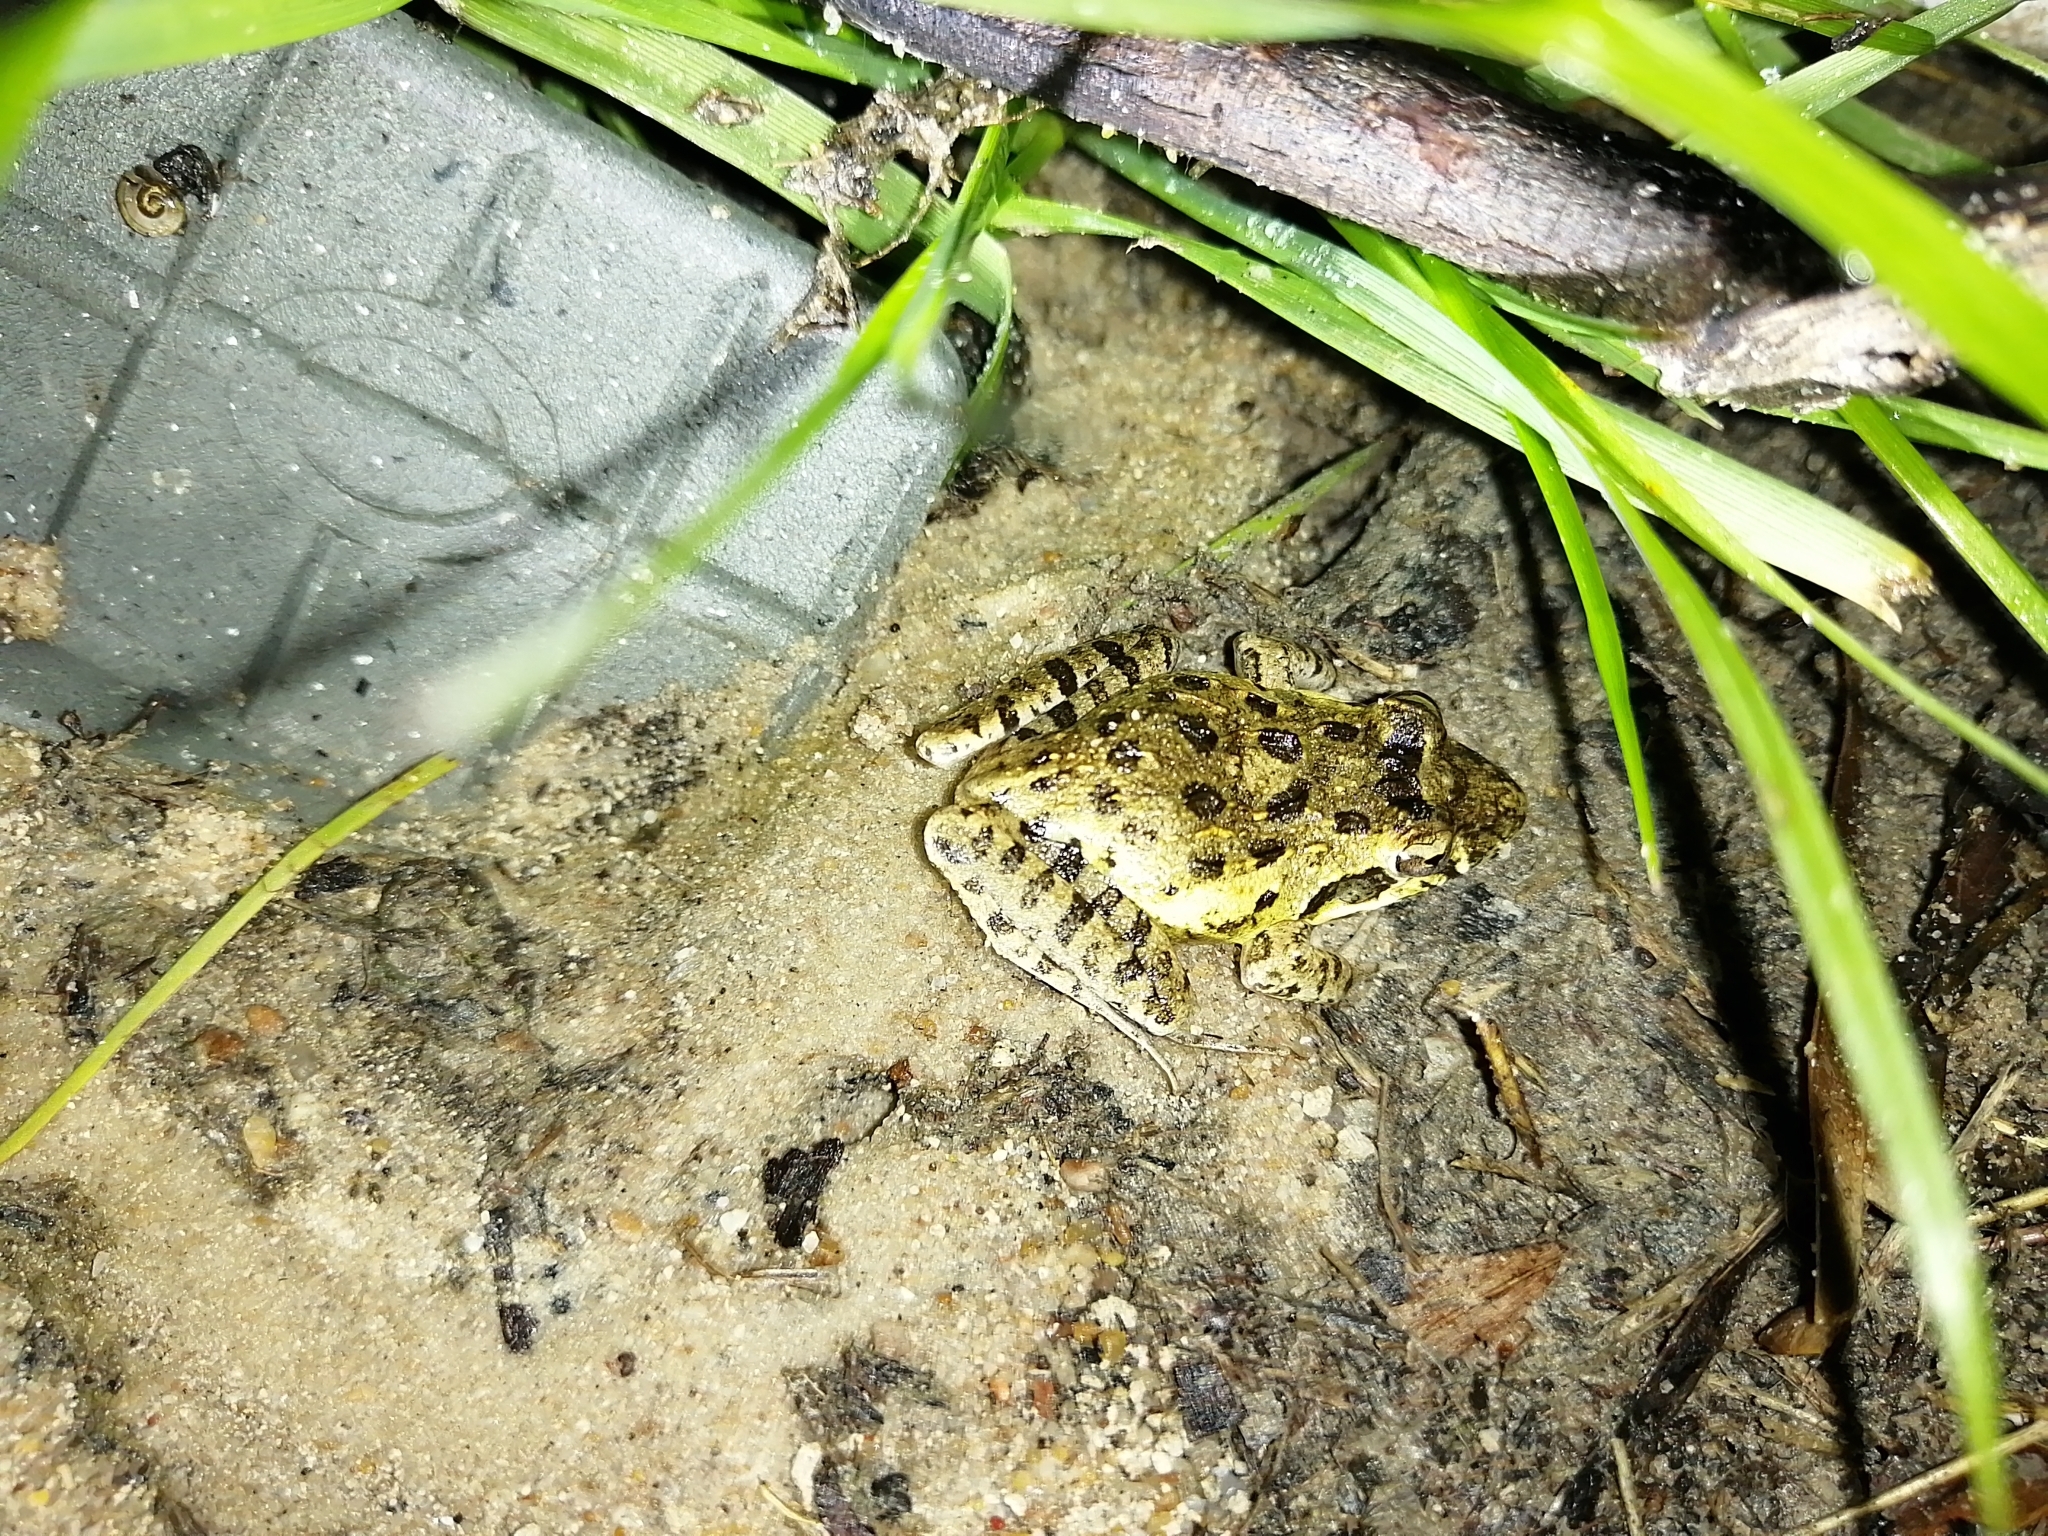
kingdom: Animalia
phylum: Chordata
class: Amphibia
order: Anura
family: Pyxicephalidae
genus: Strongylopus
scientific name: Strongylopus grayii
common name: Gray's stream frog
